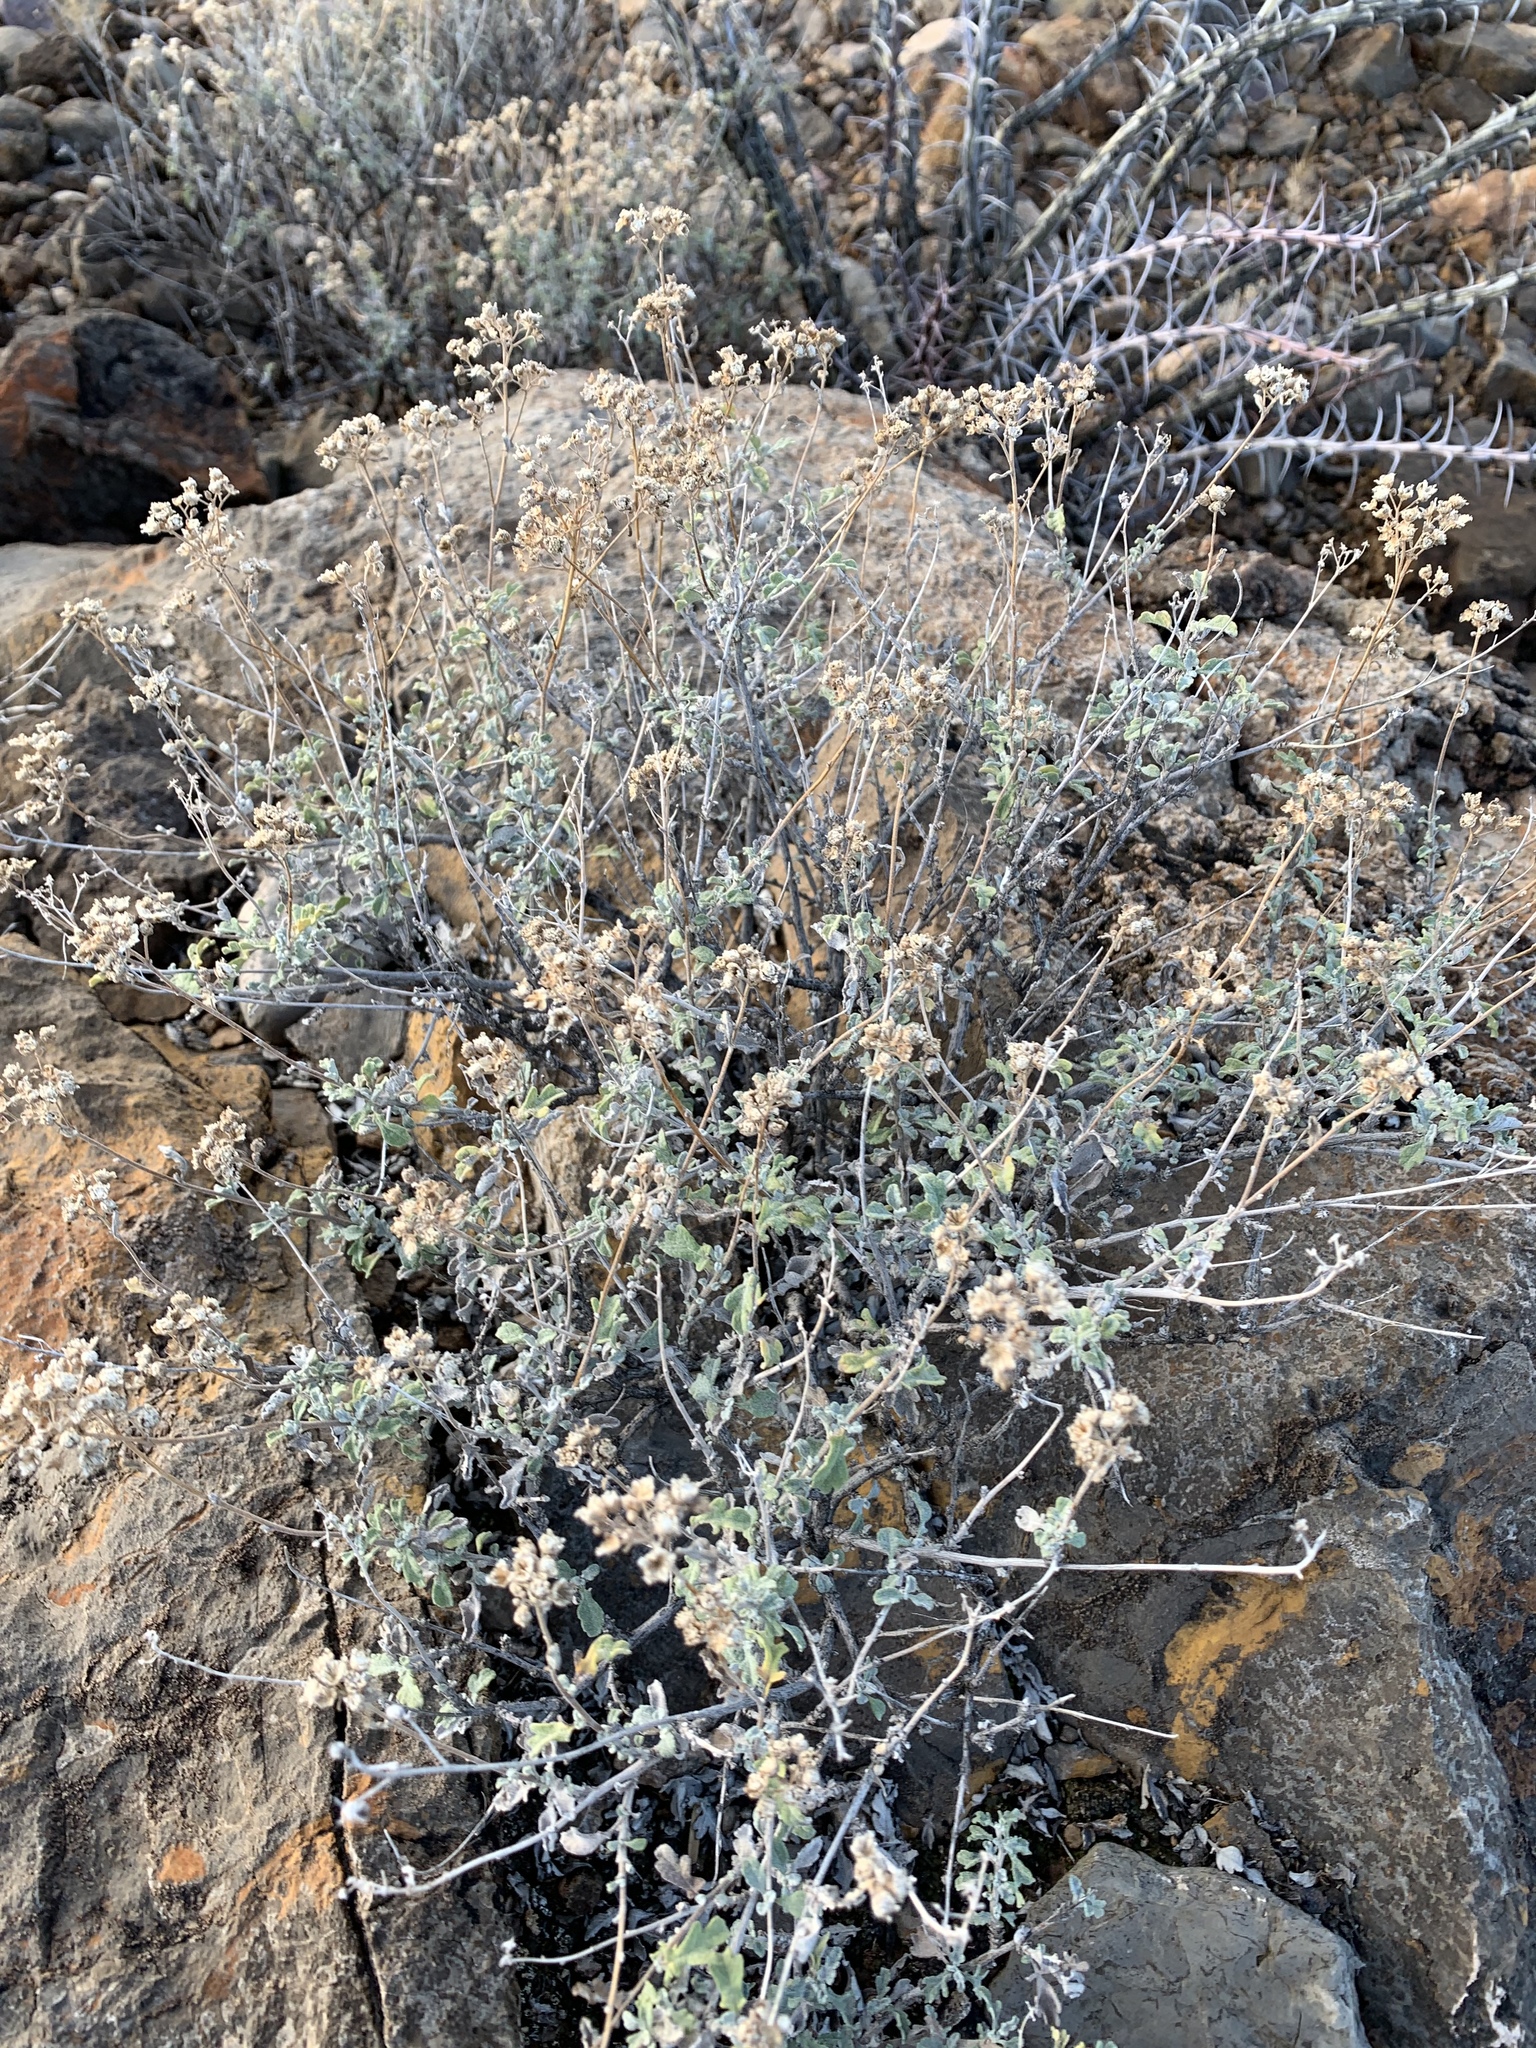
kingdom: Plantae
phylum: Tracheophyta
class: Magnoliopsida
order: Asterales
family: Asteraceae
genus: Parthenium
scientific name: Parthenium incanum
